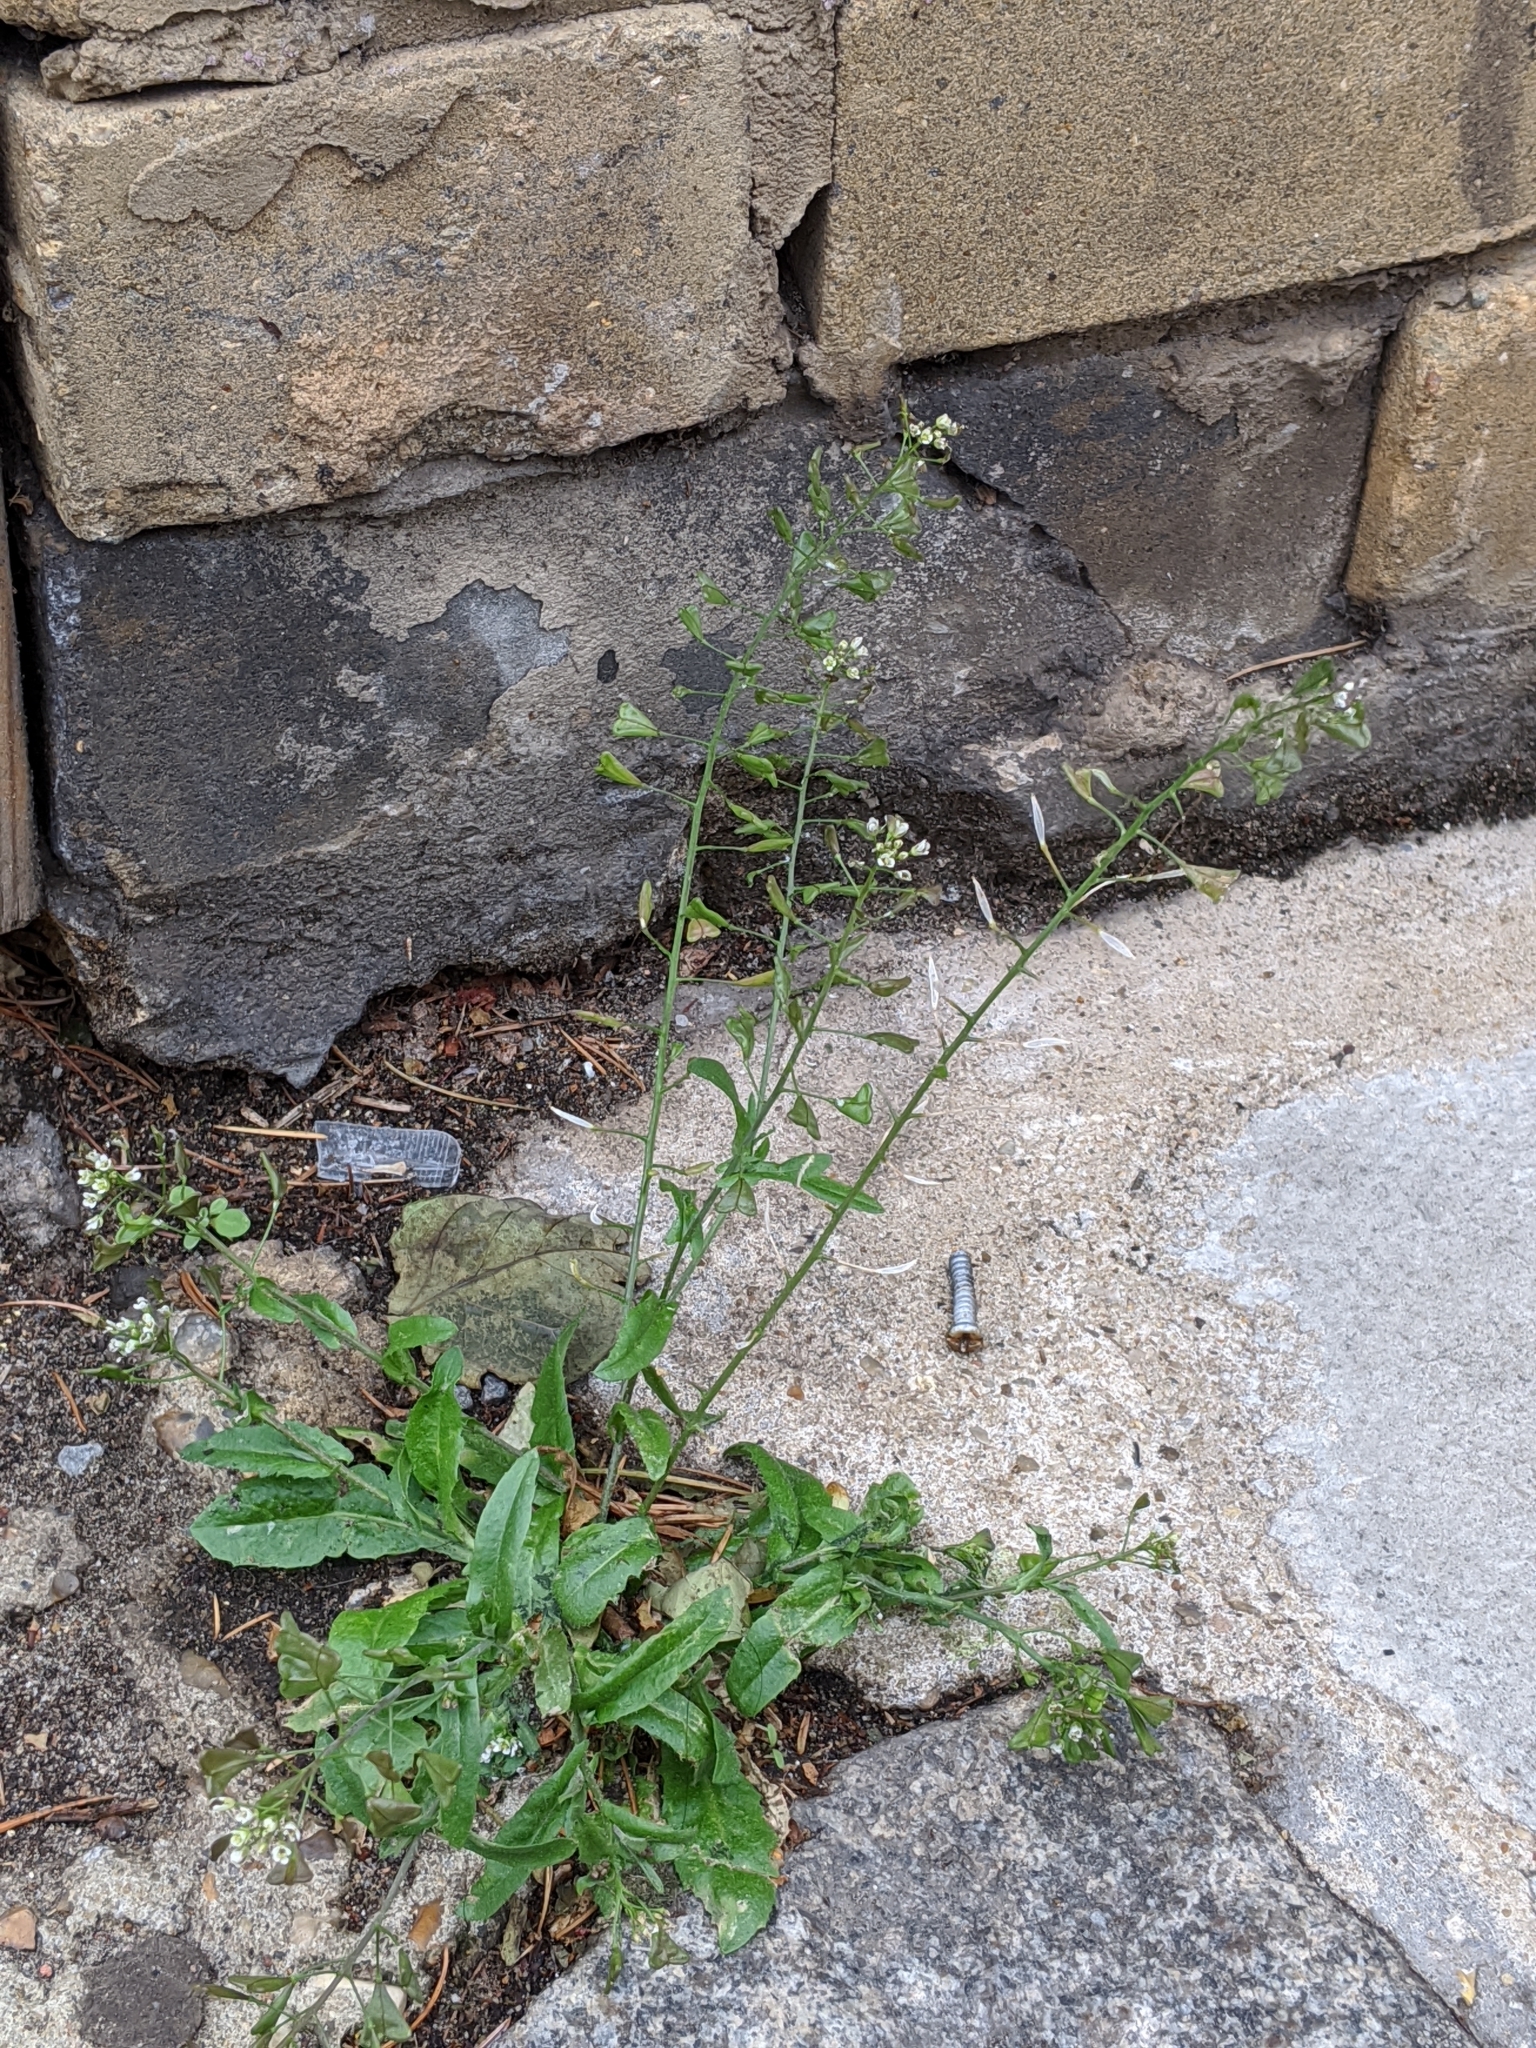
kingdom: Plantae
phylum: Tracheophyta
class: Magnoliopsida
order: Brassicales
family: Brassicaceae
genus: Capsella
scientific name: Capsella bursa-pastoris
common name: Shepherd's purse
